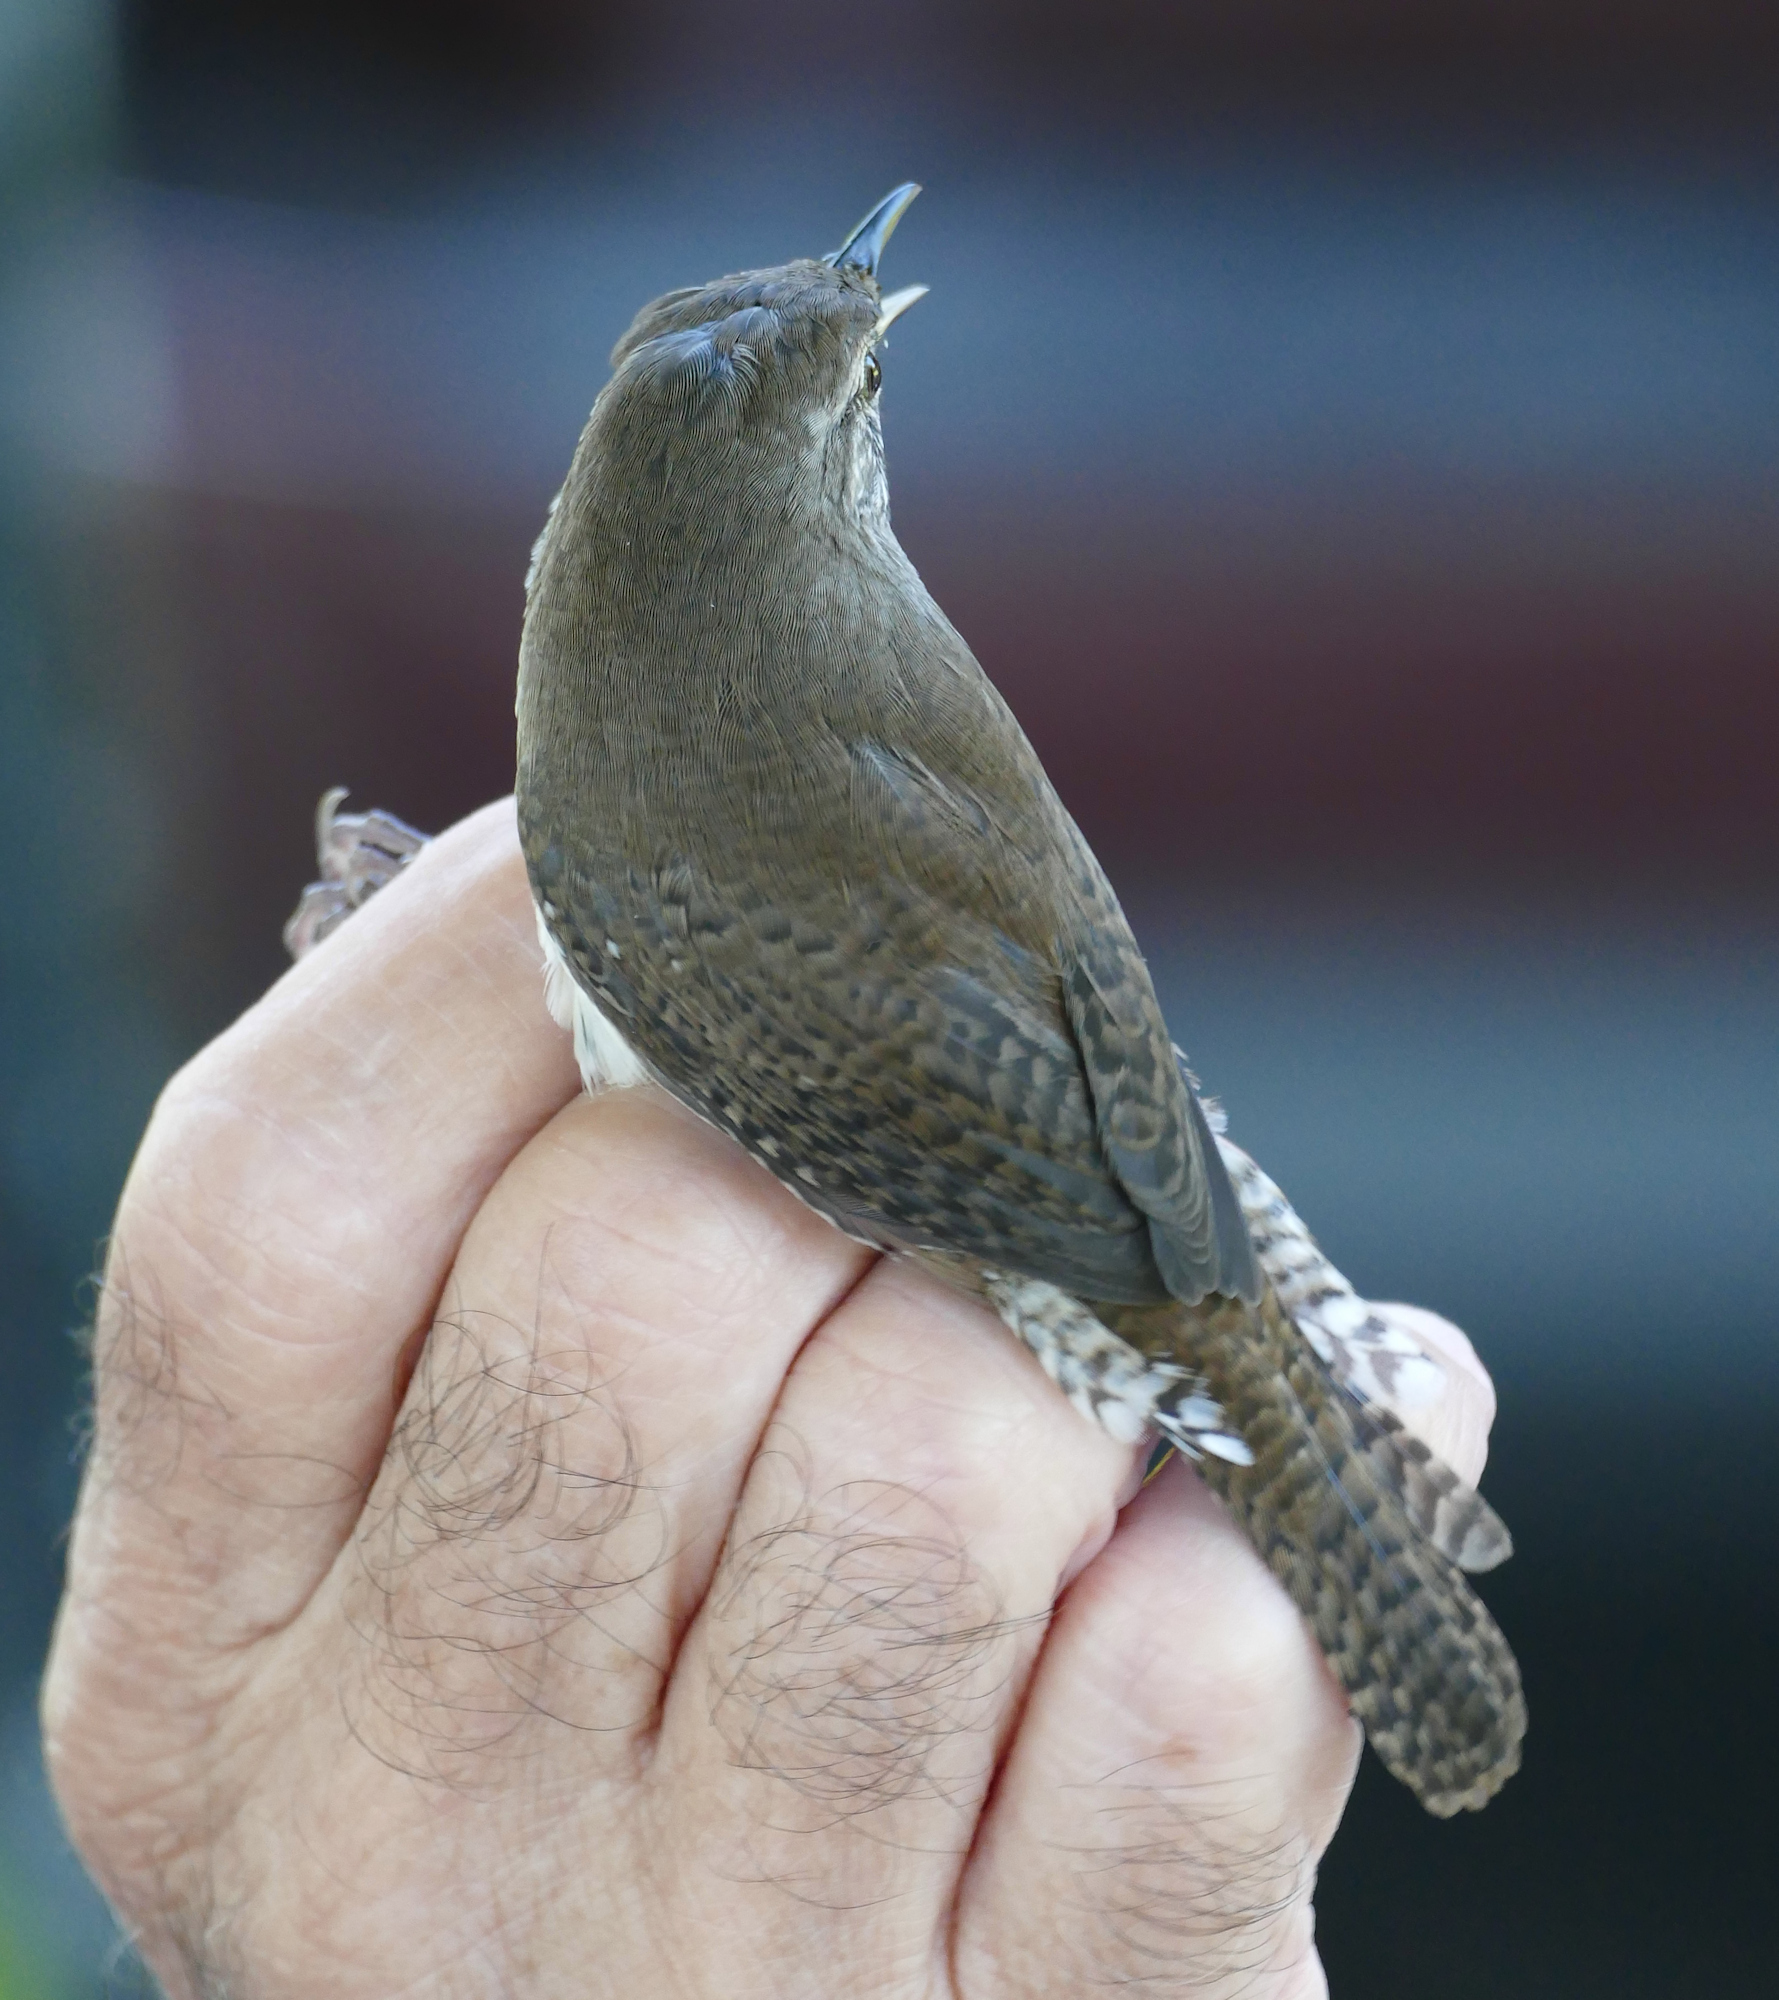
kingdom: Animalia
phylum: Chordata
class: Aves
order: Passeriformes
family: Troglodytidae
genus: Troglodytes
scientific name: Troglodytes aedon
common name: House wren
